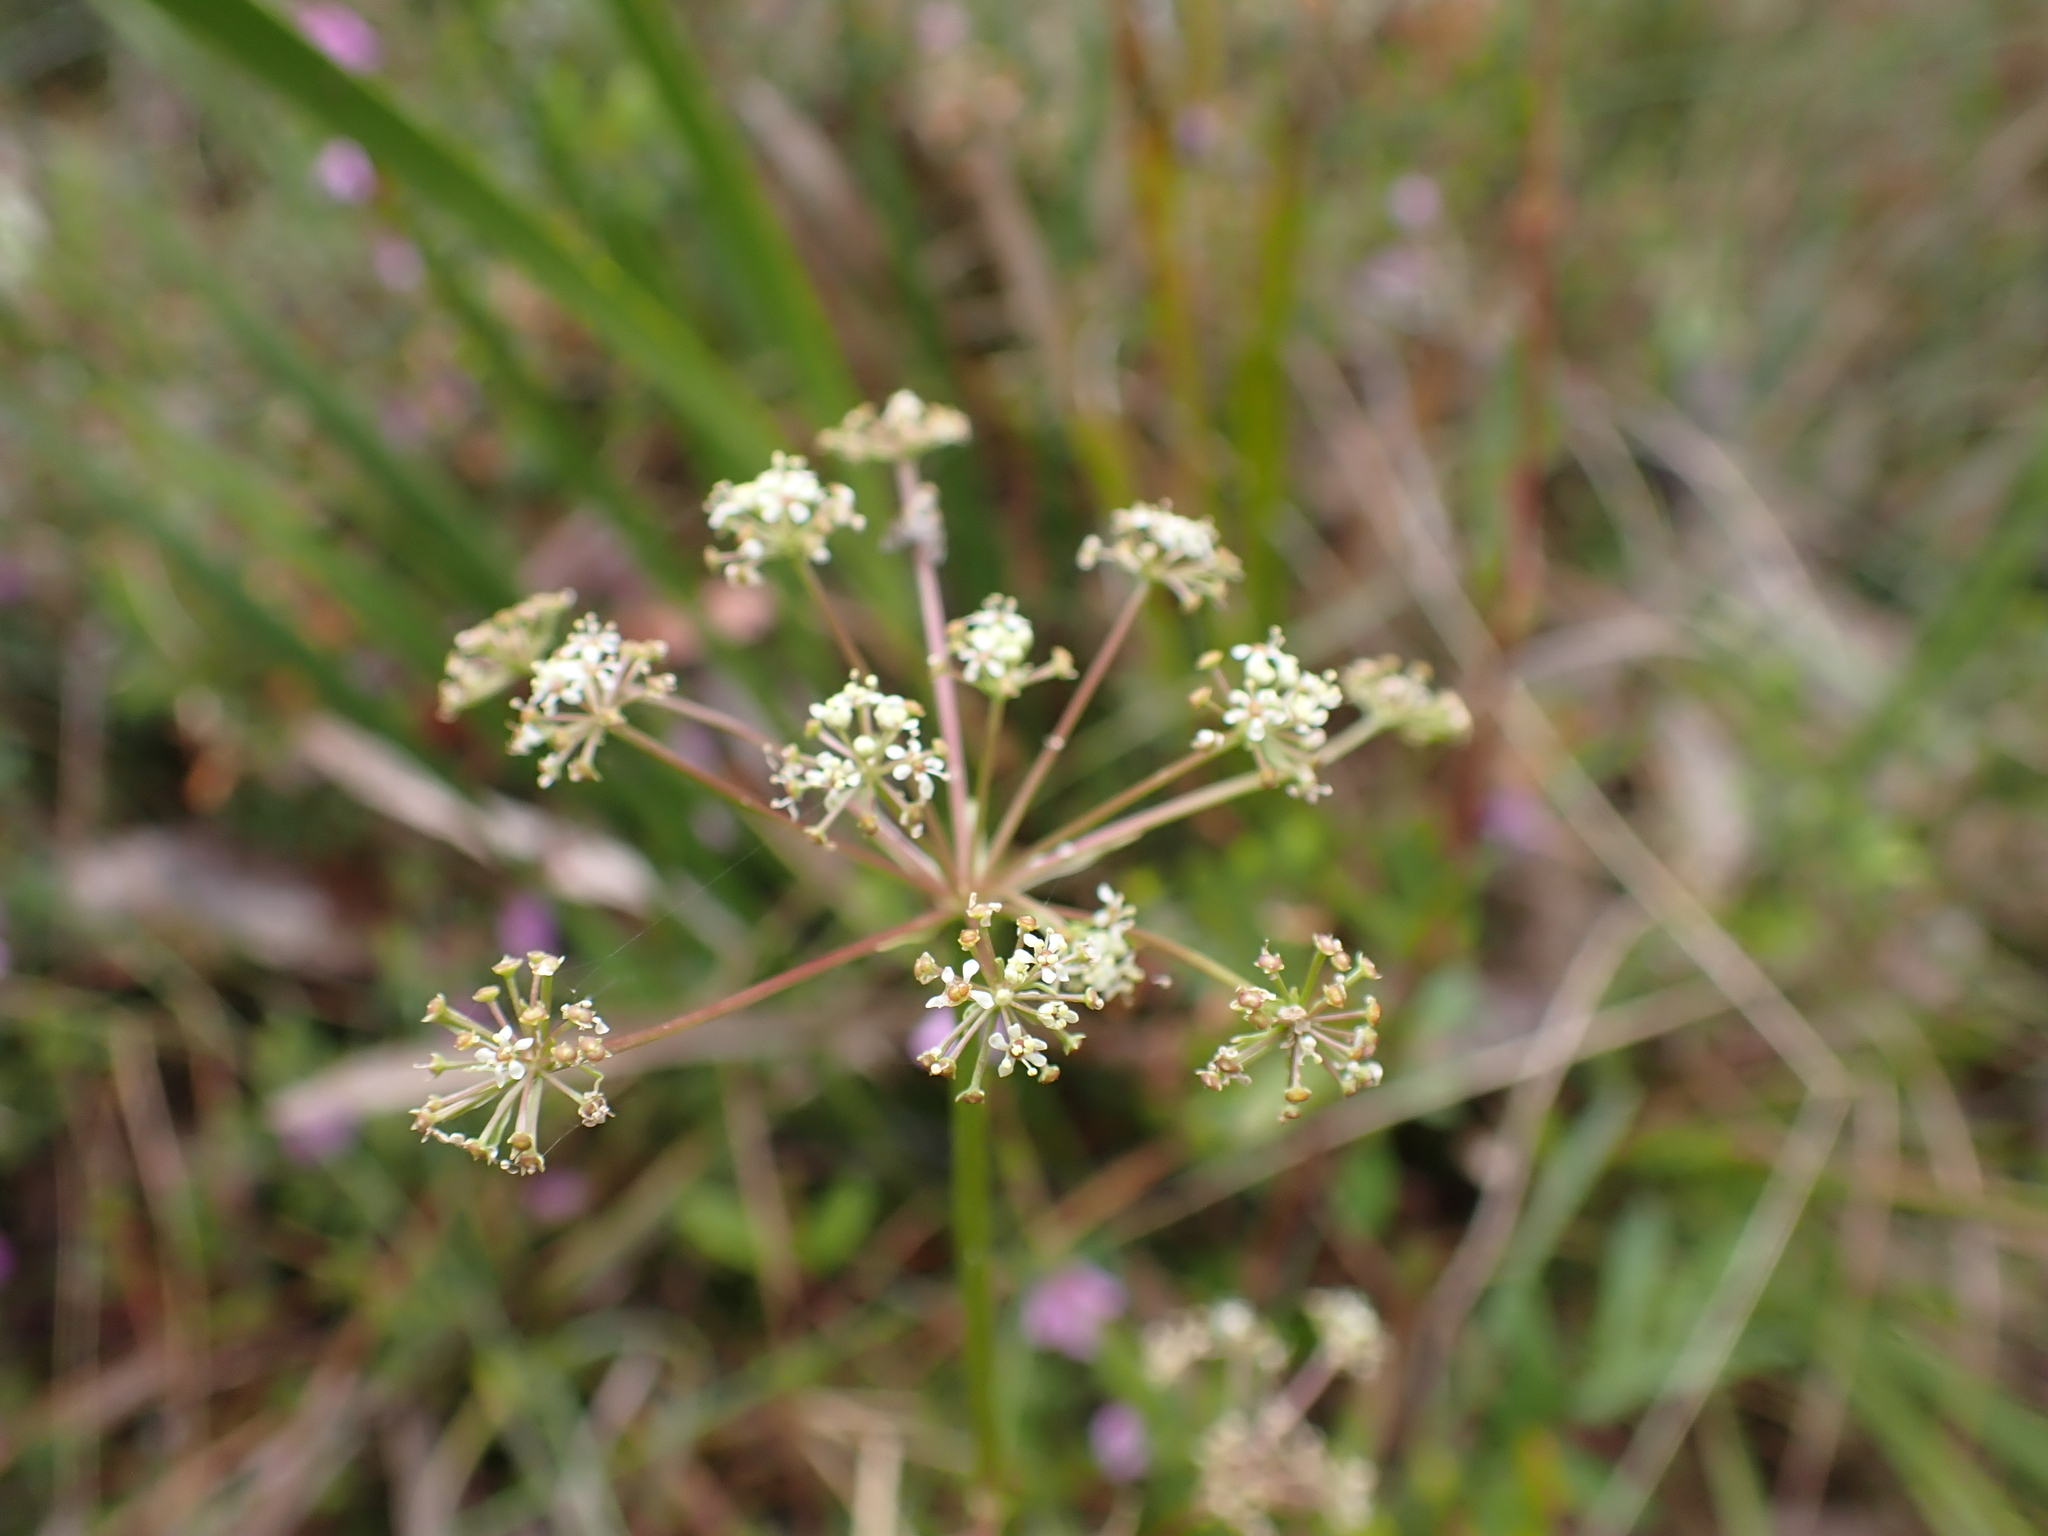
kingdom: Plantae
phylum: Tracheophyta
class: Magnoliopsida
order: Apiales
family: Apiaceae
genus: Aciphylla
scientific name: Aciphylla simplicifolia
